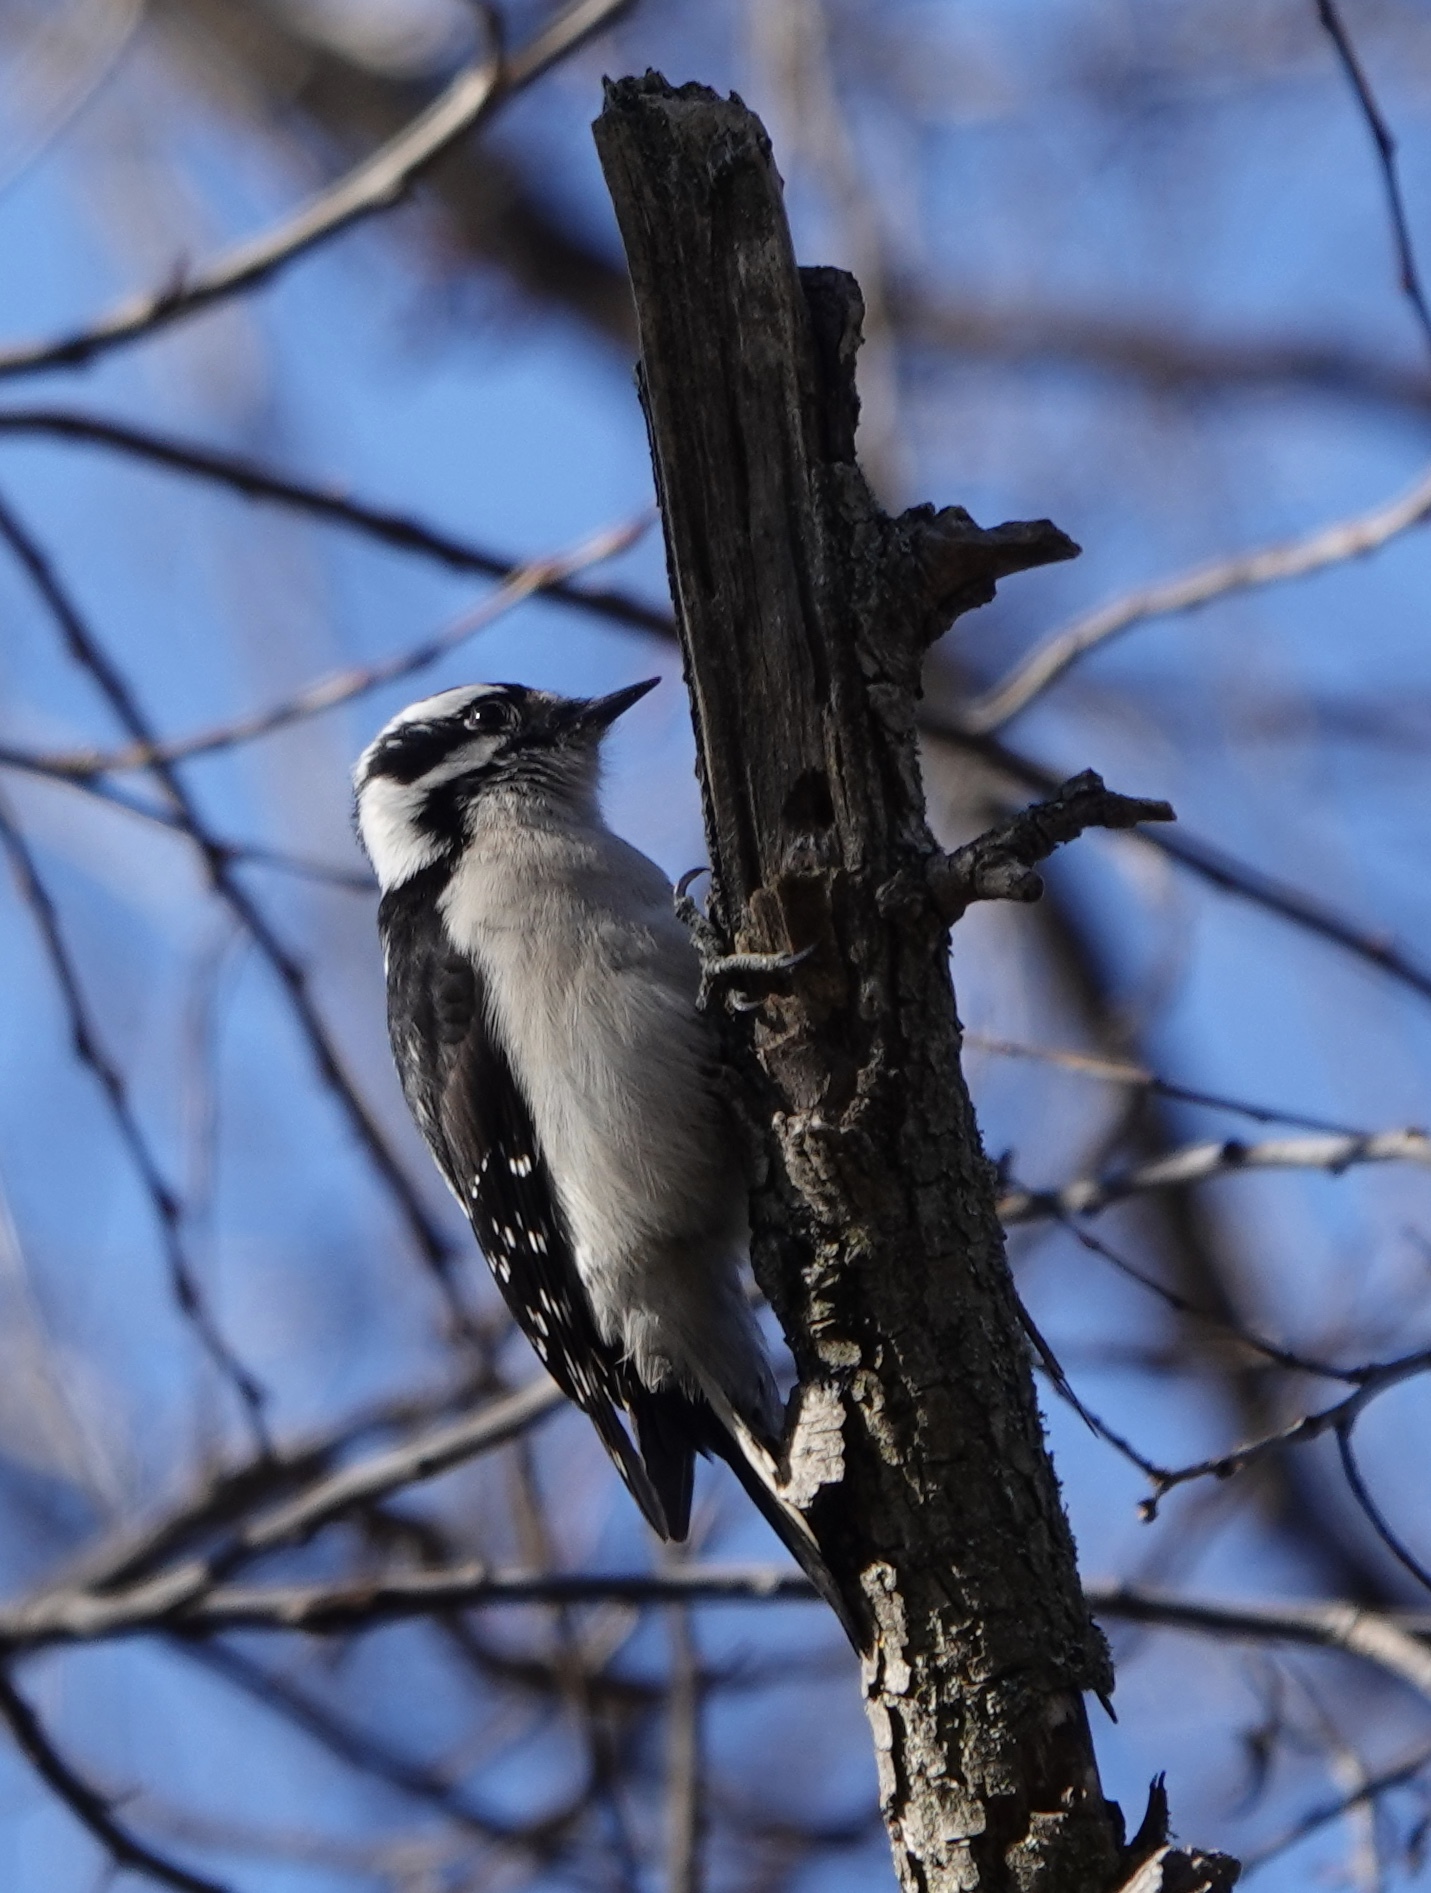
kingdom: Animalia
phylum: Chordata
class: Aves
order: Piciformes
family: Picidae
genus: Dryobates
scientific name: Dryobates pubescens
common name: Downy woodpecker
